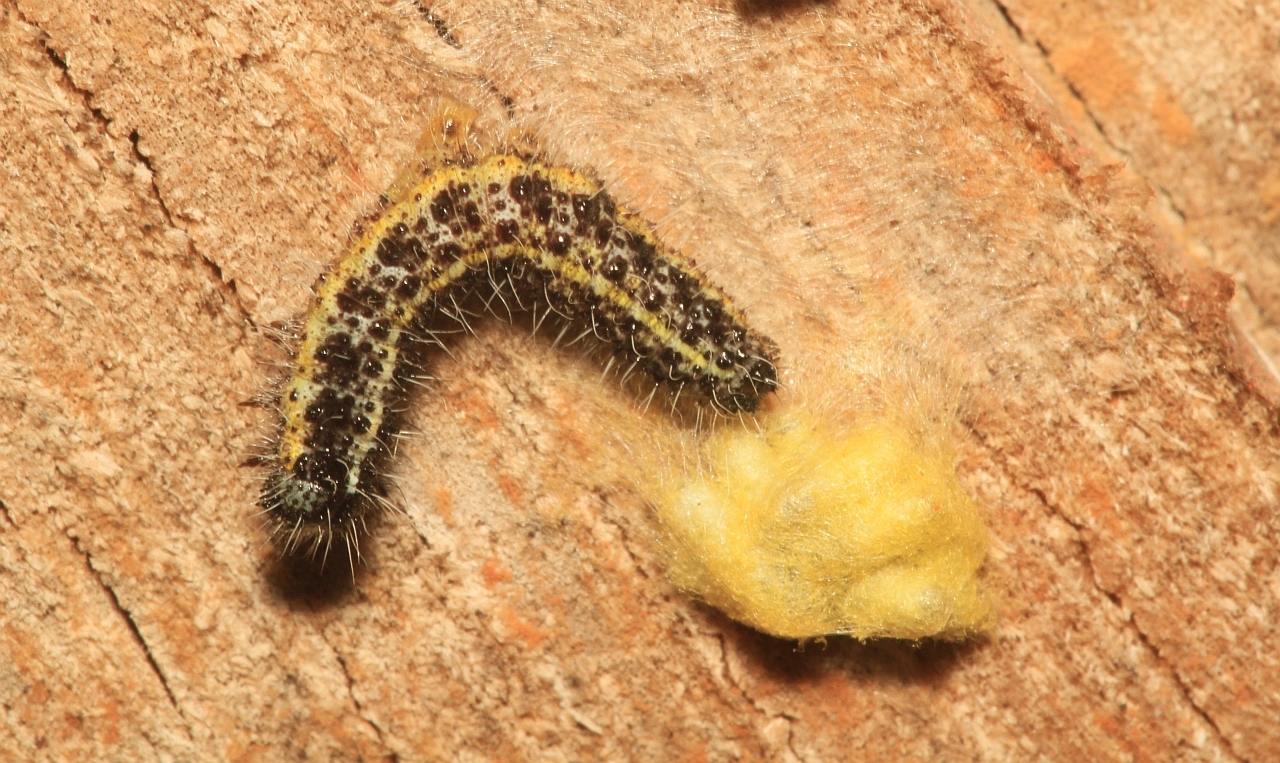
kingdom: Animalia
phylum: Arthropoda
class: Insecta
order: Lepidoptera
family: Pieridae
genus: Pieris
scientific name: Pieris brassicae
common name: Large white
